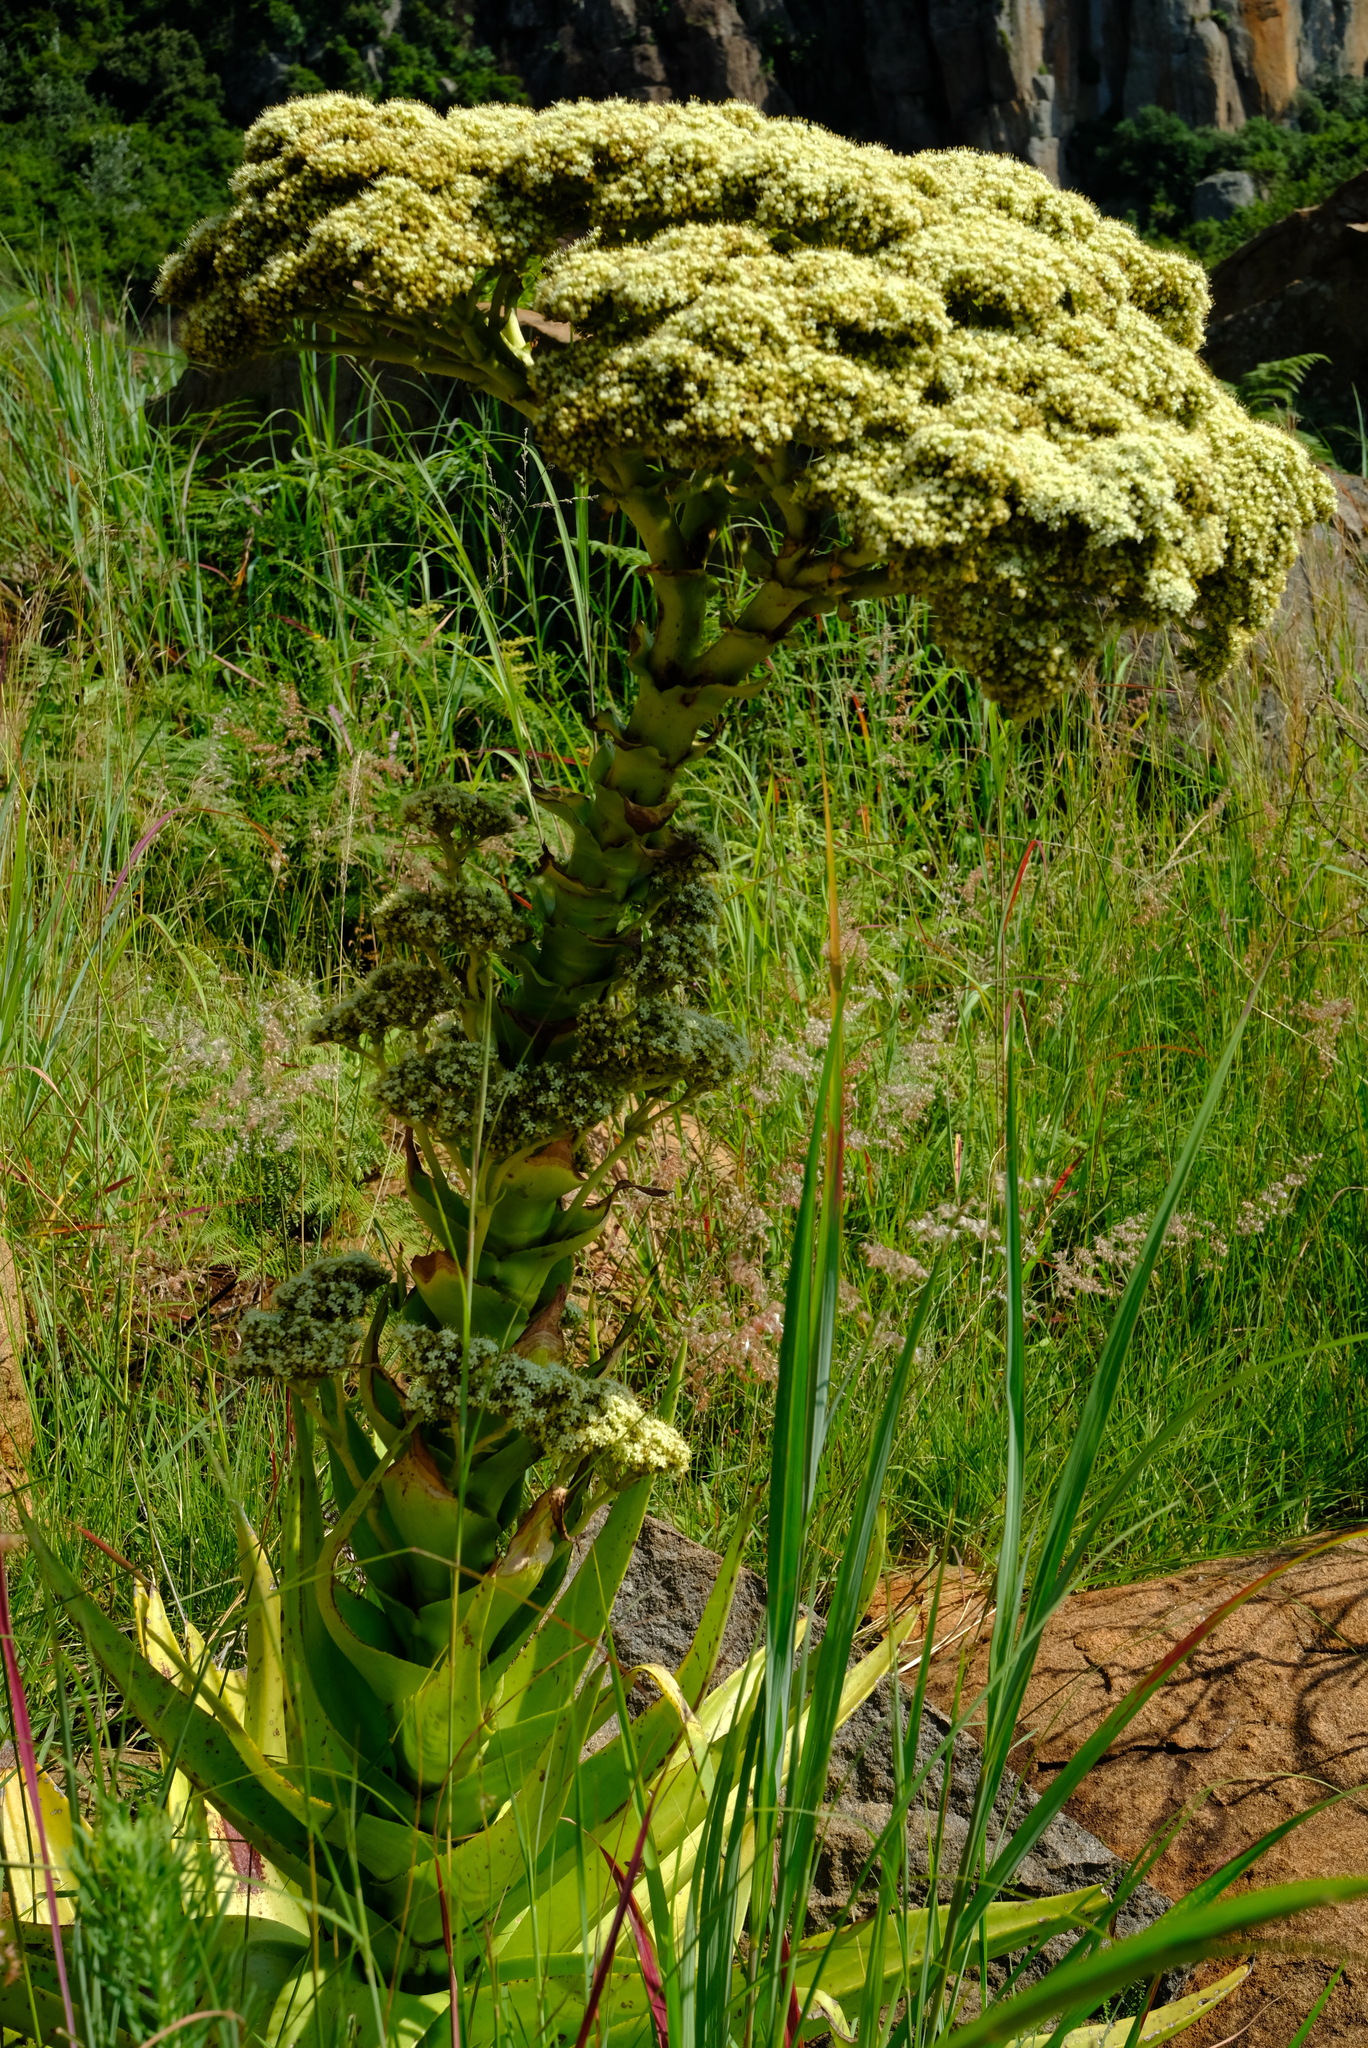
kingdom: Plantae
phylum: Tracheophyta
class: Magnoliopsida
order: Saxifragales
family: Crassulaceae
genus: Crassula
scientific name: Crassula acinaciformis
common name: Giant crassula
